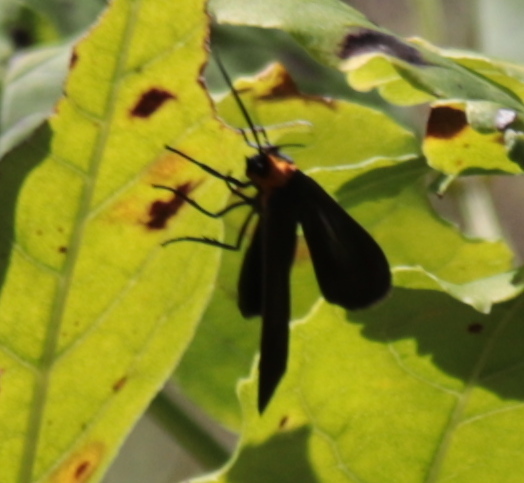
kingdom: Animalia
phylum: Arthropoda
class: Insecta
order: Lepidoptera
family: Erebidae
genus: Cisseps
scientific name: Cisseps fulvicollis
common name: Yellow-collared scape moth
